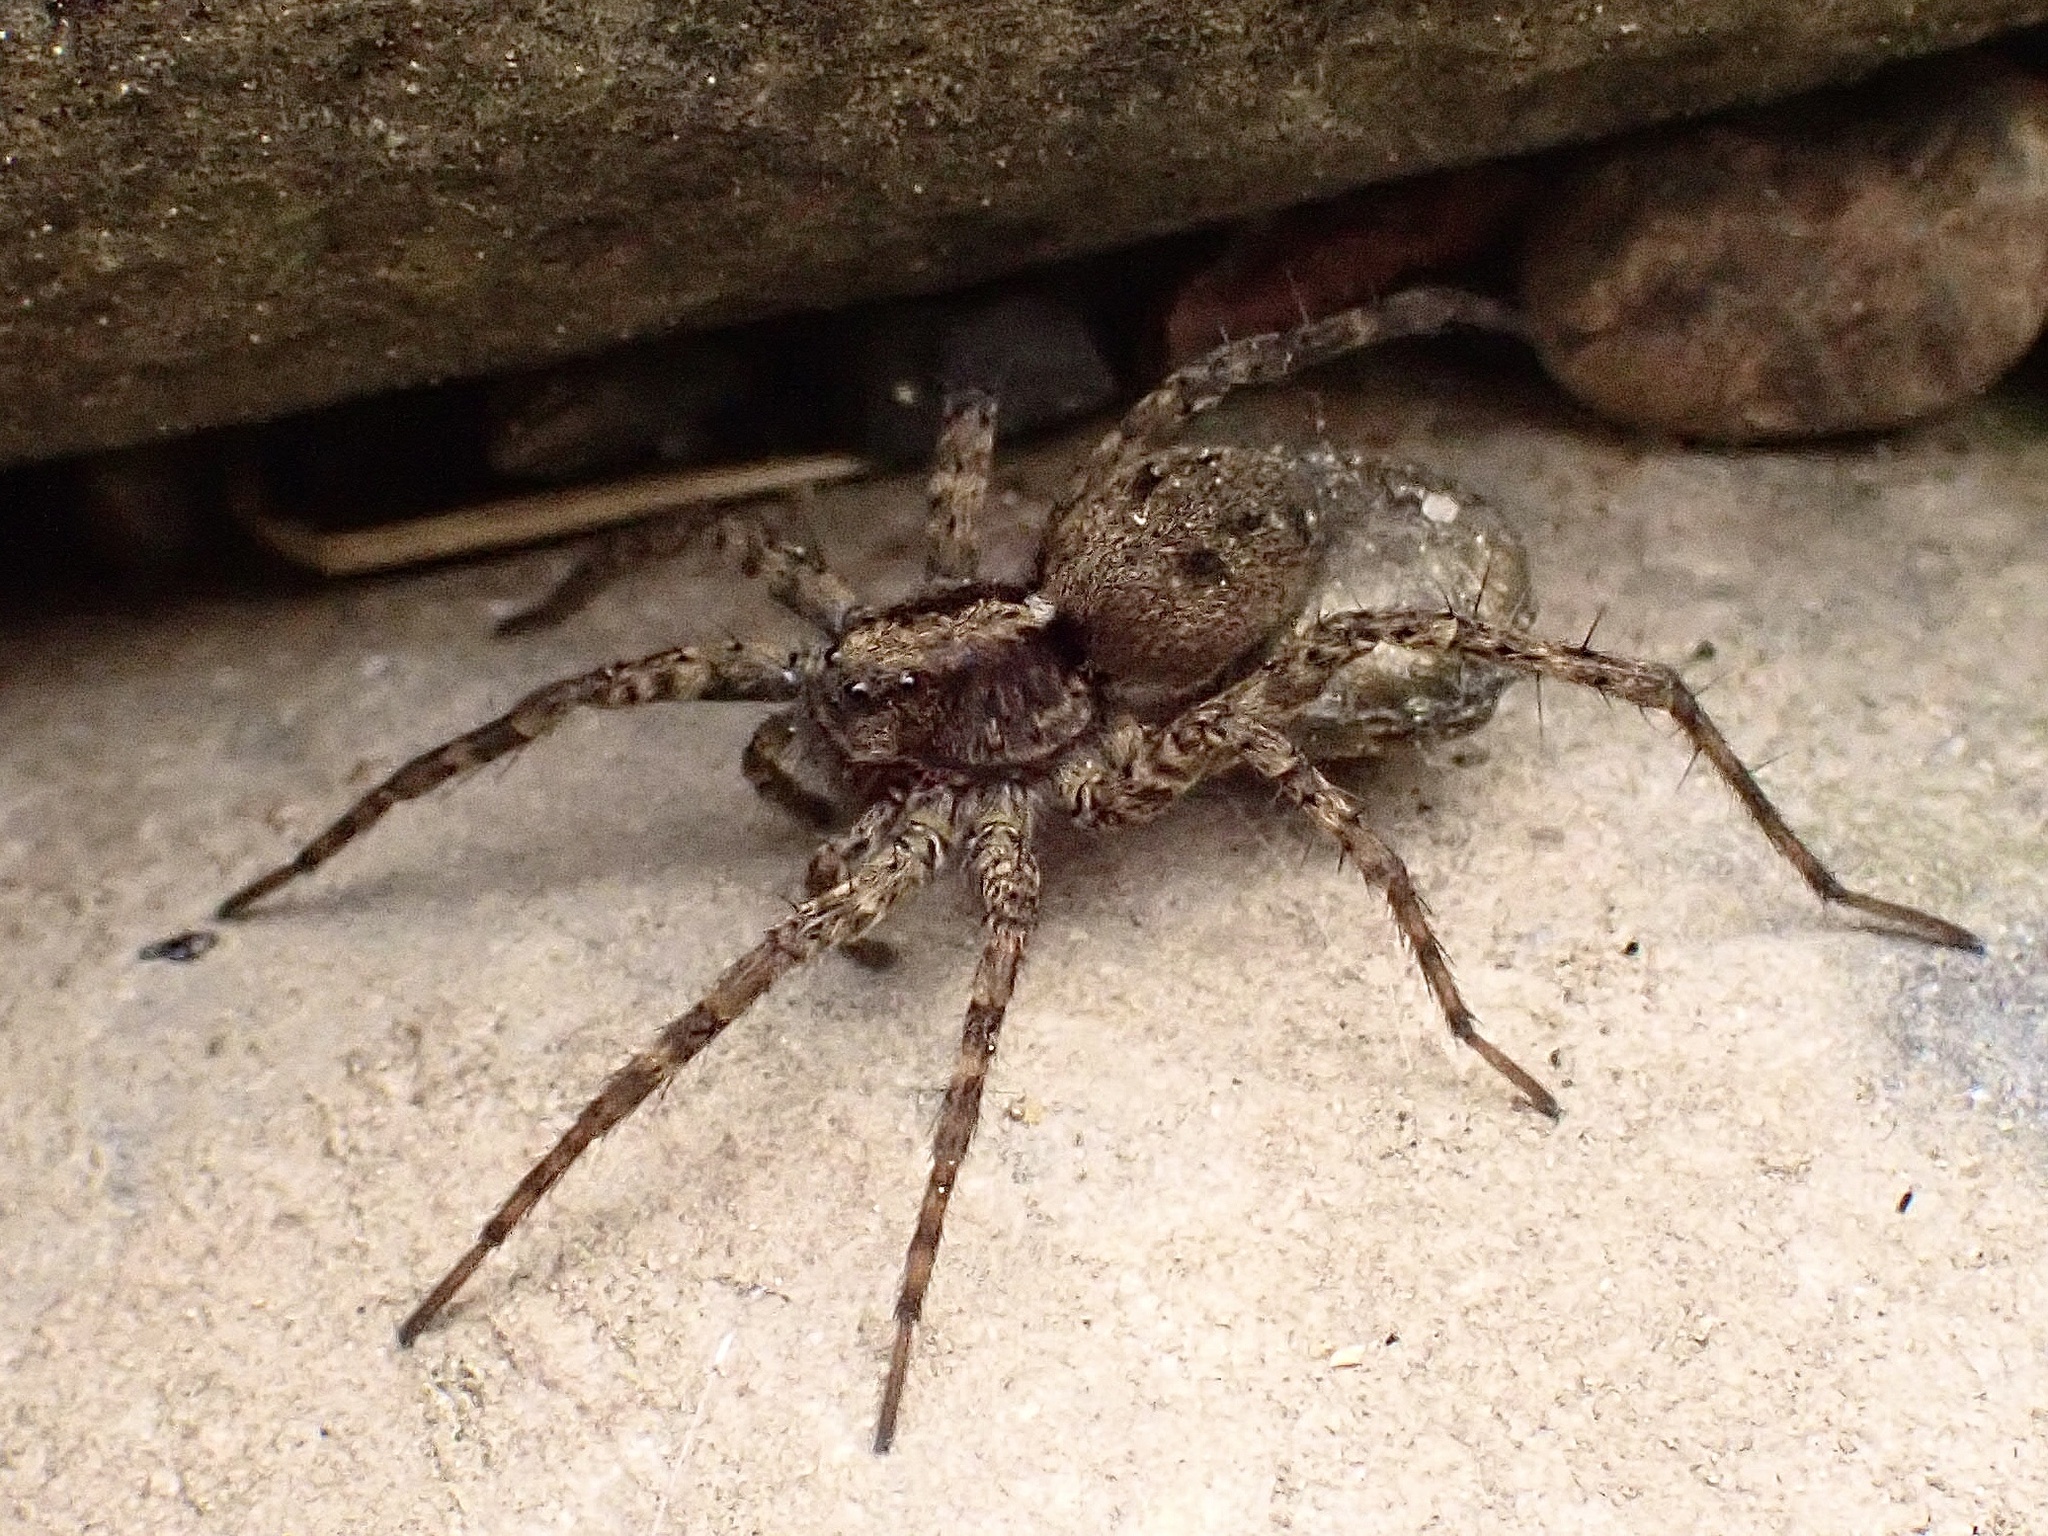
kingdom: Animalia
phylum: Arthropoda
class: Arachnida
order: Araneae
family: Lycosidae
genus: Pardosa
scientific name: Pardosa amentata
